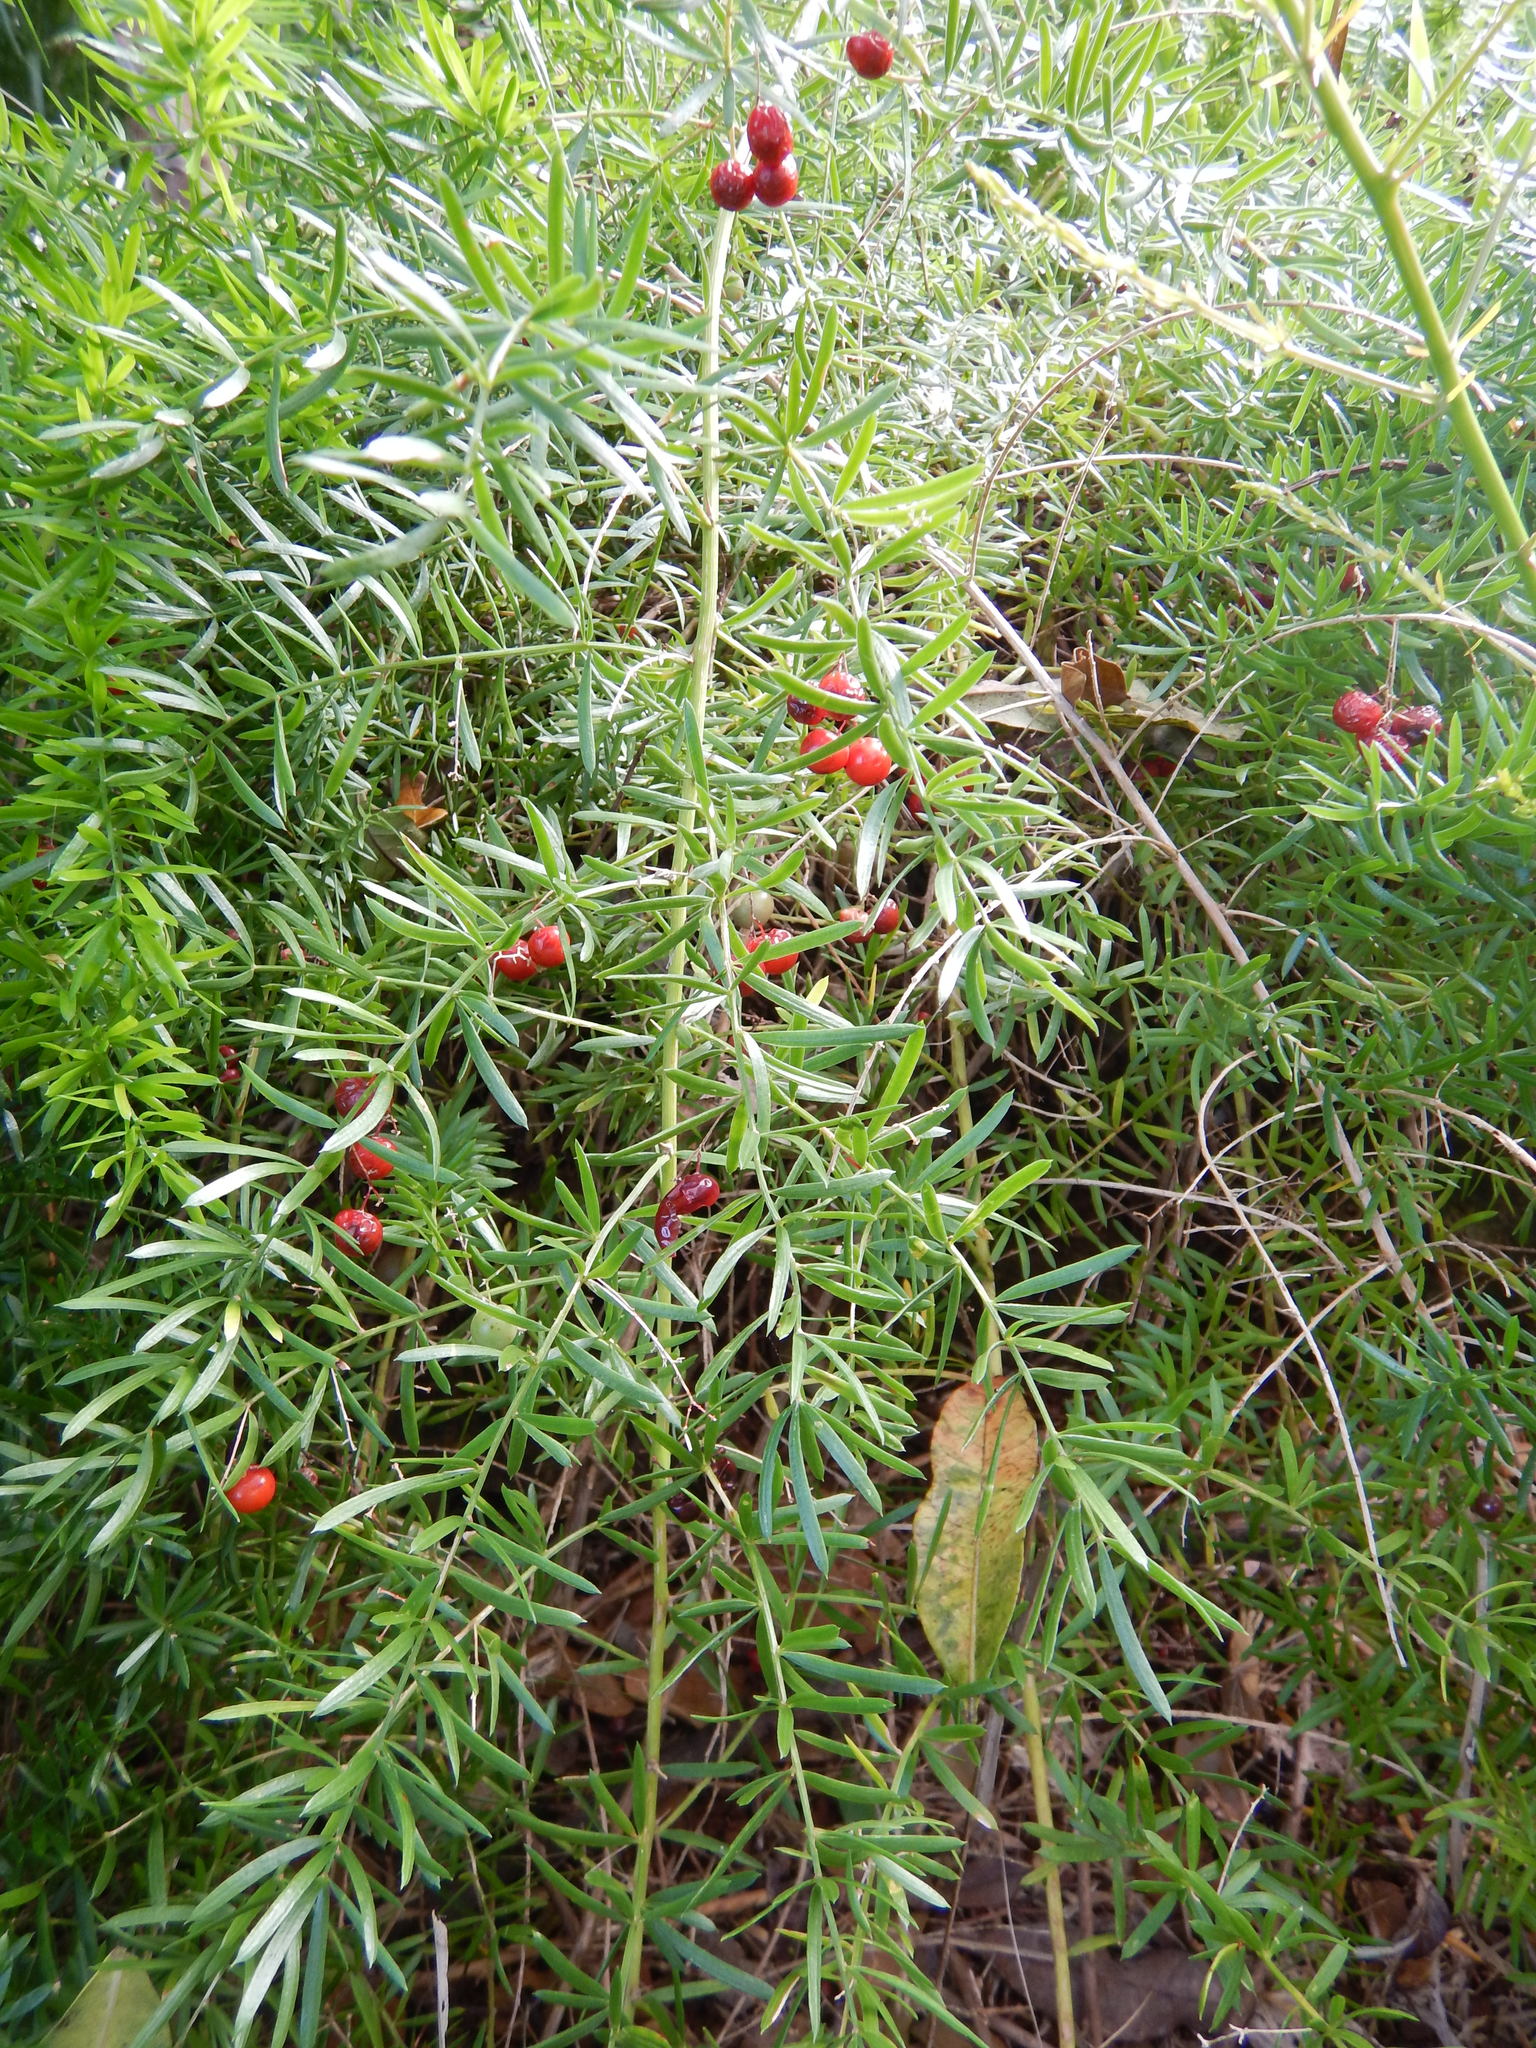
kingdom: Plantae
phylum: Tracheophyta
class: Liliopsida
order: Asparagales
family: Asparagaceae
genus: Asparagus
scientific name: Asparagus aethiopicus
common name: Sprenger's asparagus fern
